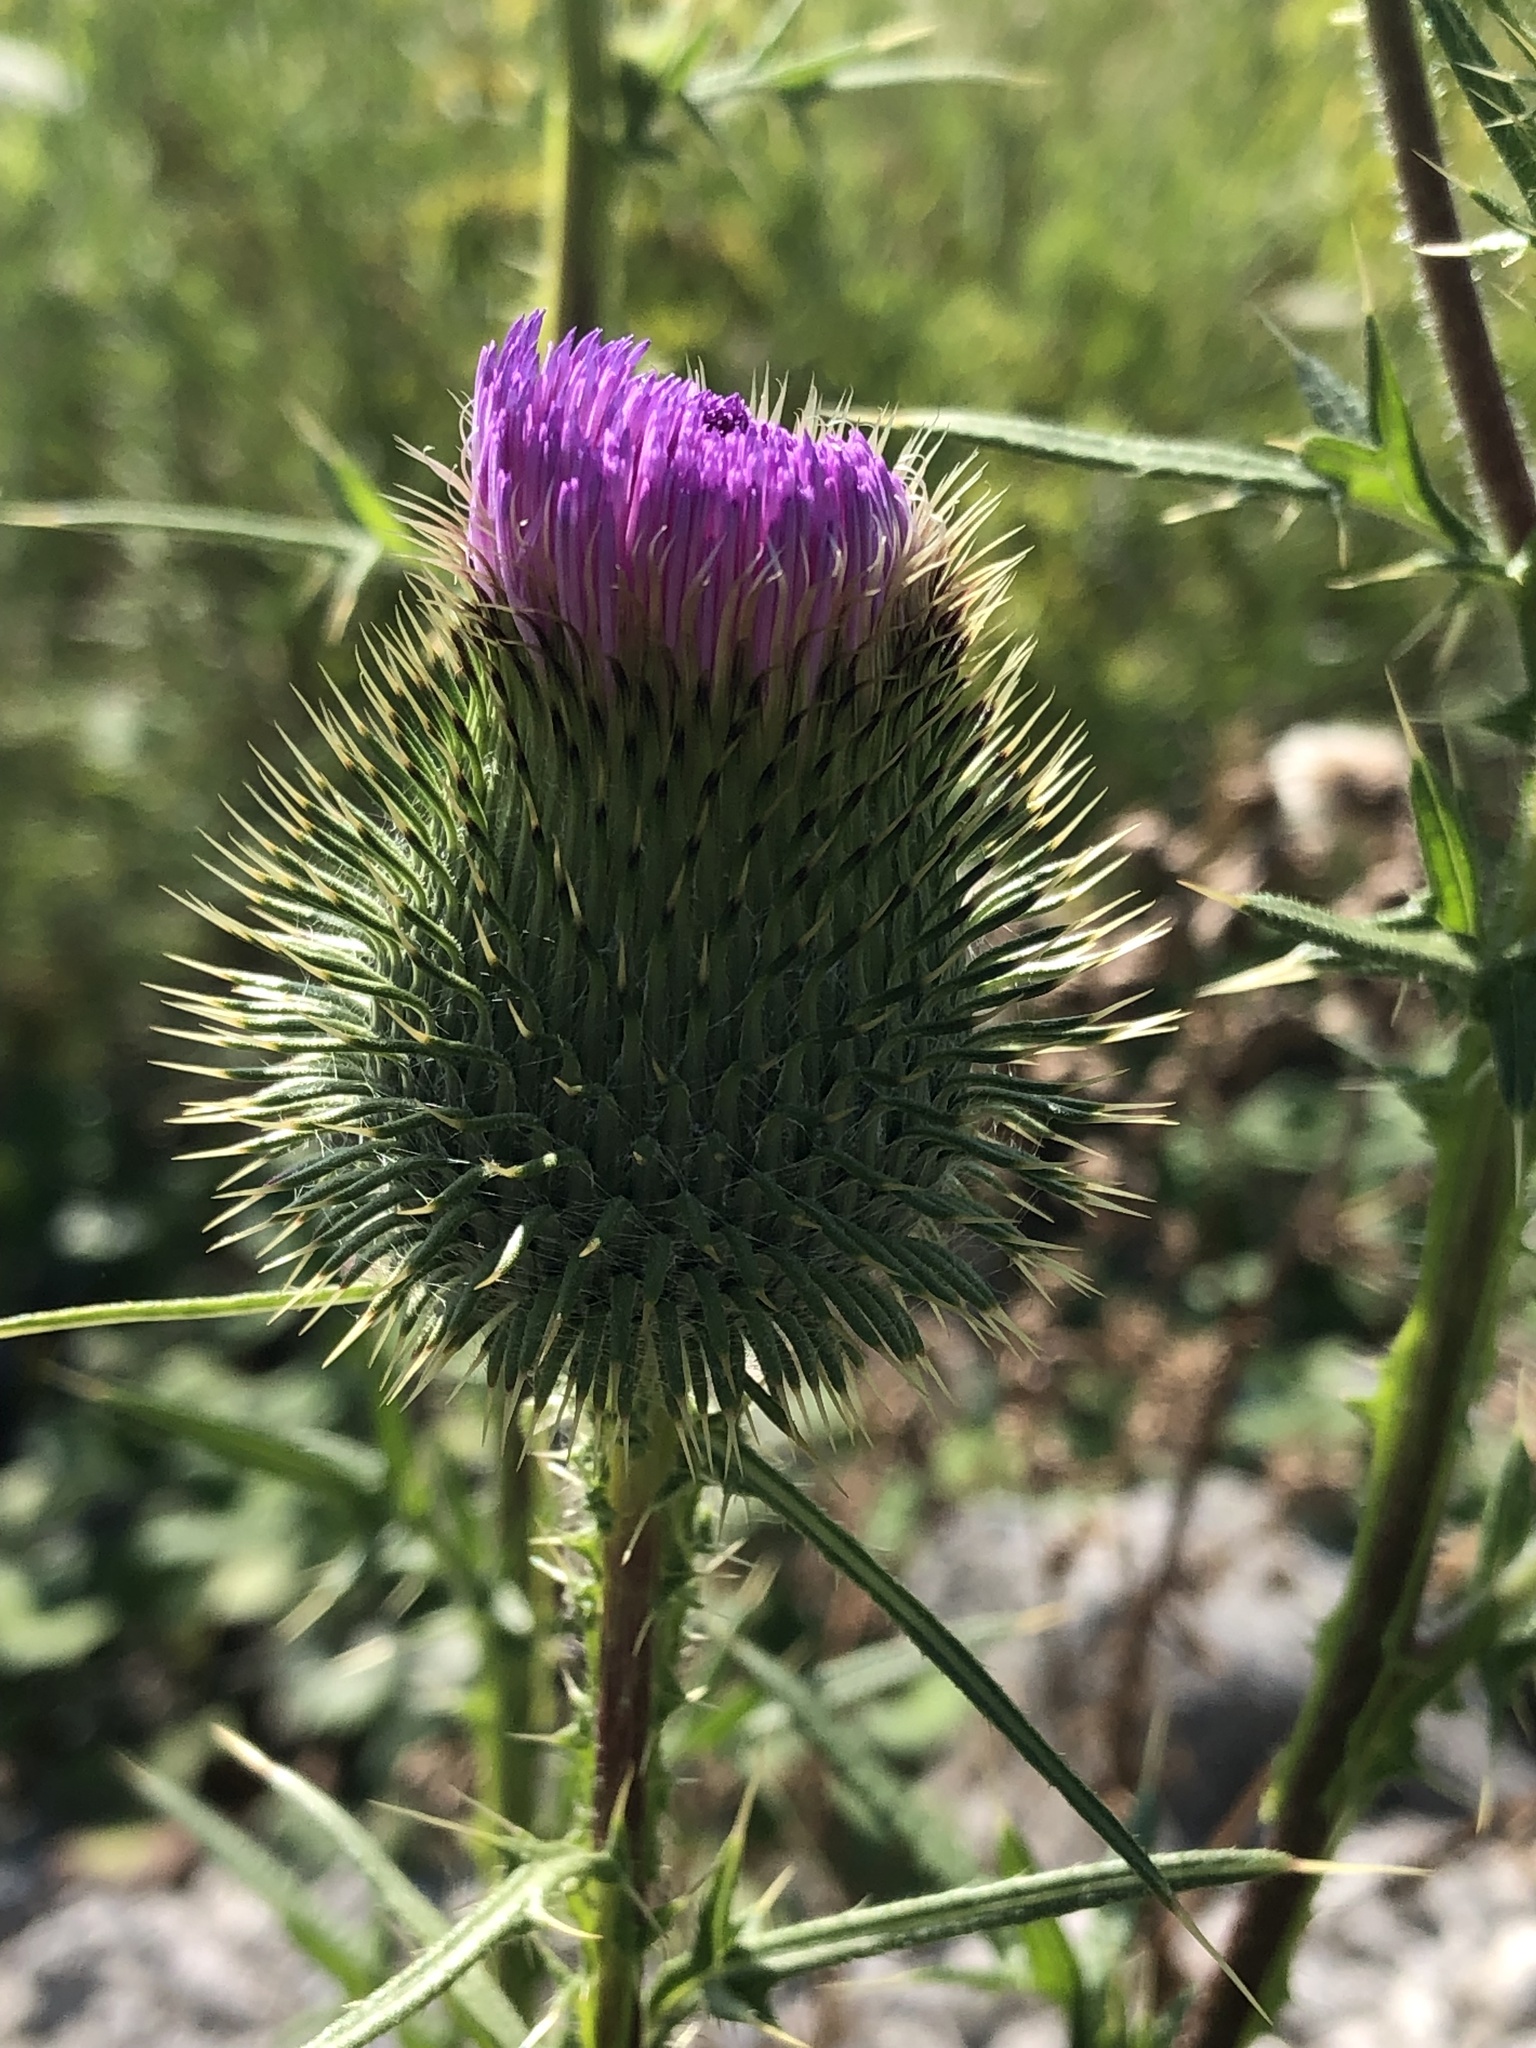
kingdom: Plantae
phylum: Tracheophyta
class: Magnoliopsida
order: Asterales
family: Asteraceae
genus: Cirsium
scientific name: Cirsium vulgare
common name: Bull thistle
